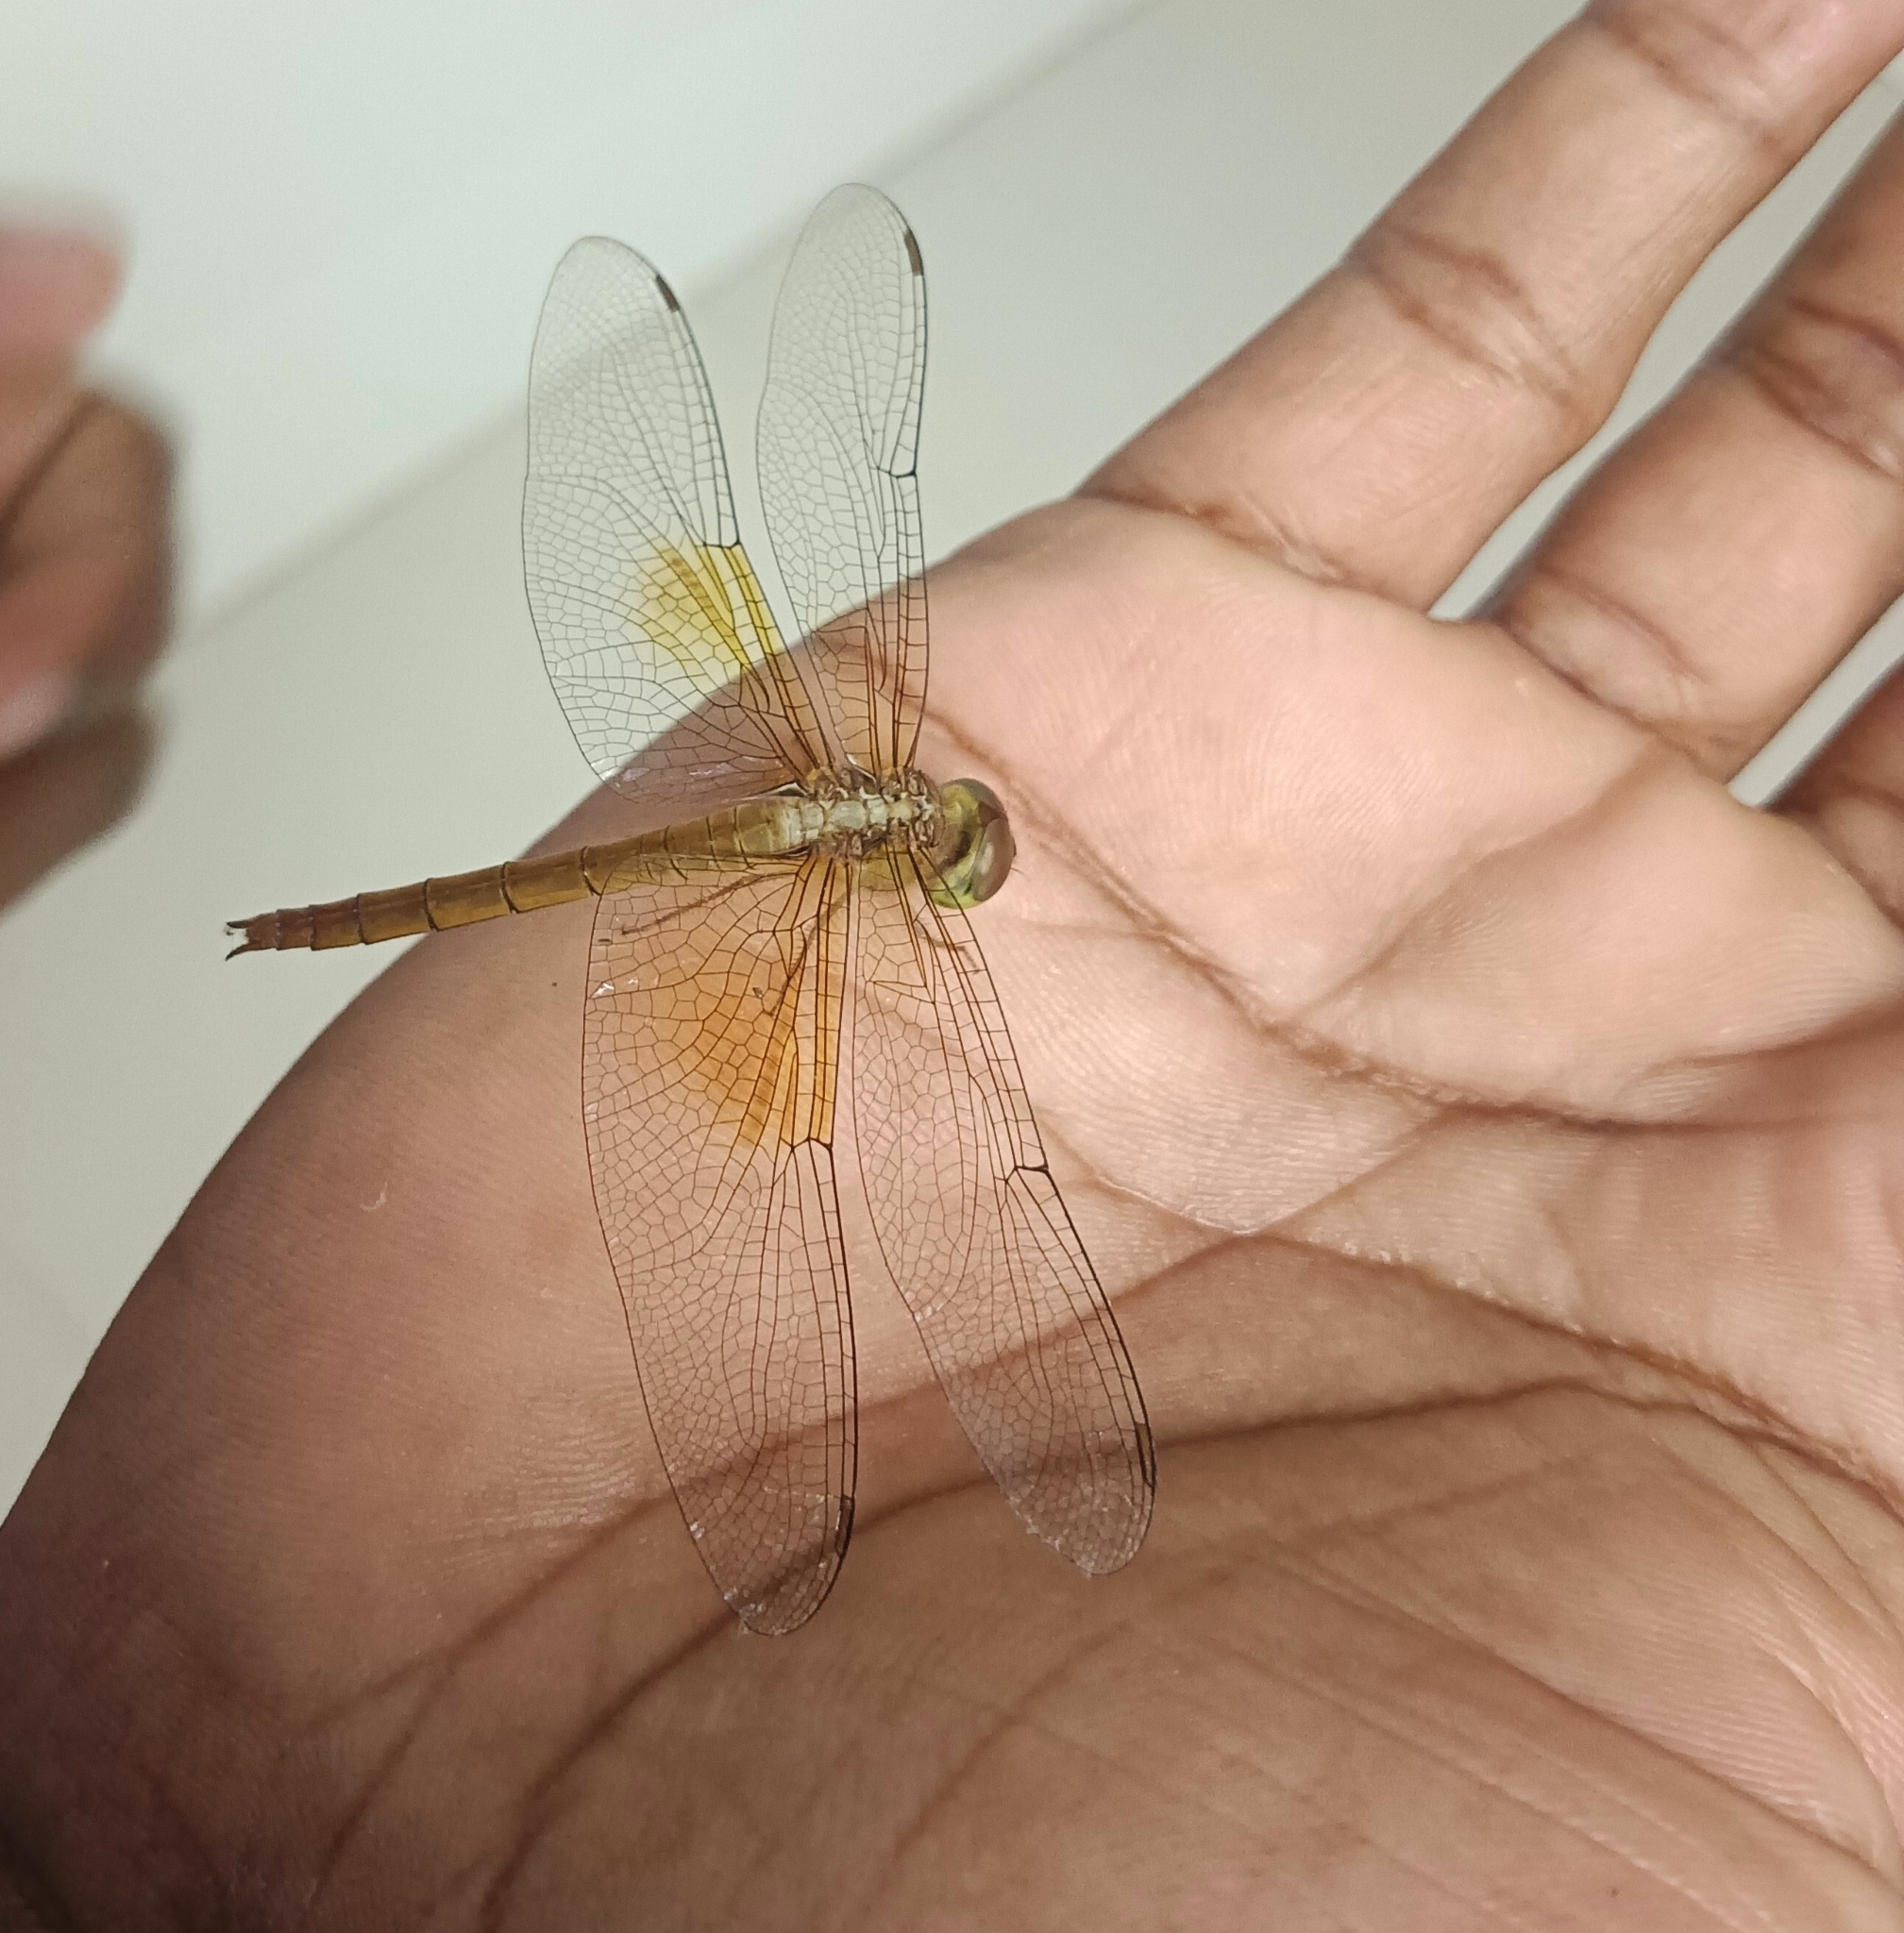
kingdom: Animalia
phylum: Arthropoda
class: Insecta
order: Odonata
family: Libellulidae
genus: Tholymis
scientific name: Tholymis tillarga
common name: Coral-tailed cloud wing
